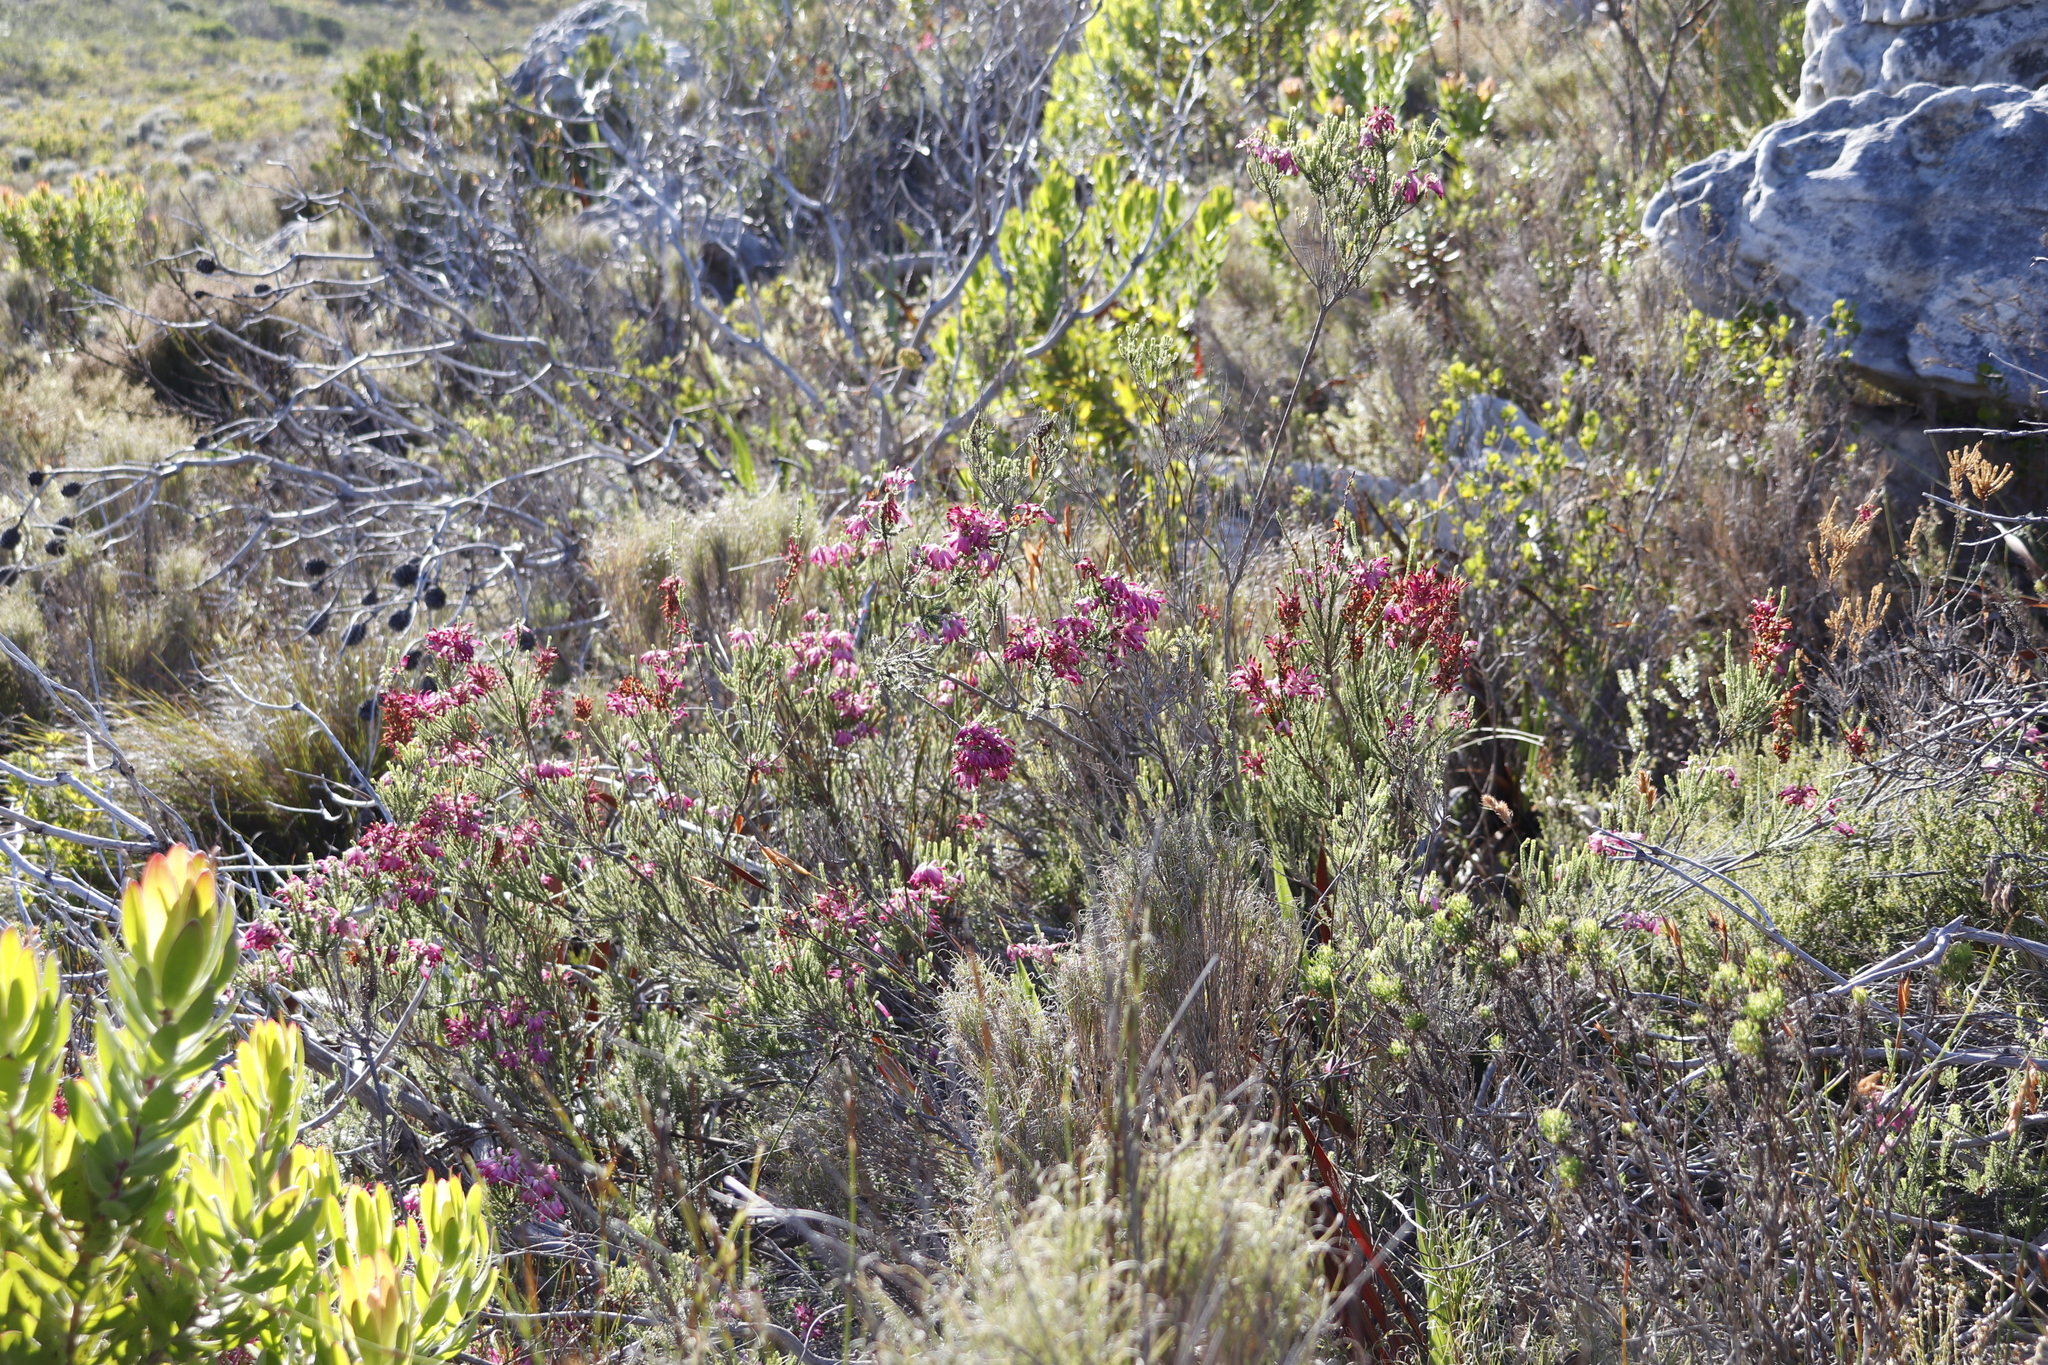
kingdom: Plantae
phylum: Tracheophyta
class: Magnoliopsida
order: Ericales
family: Ericaceae
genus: Erica
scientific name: Erica mammosa
